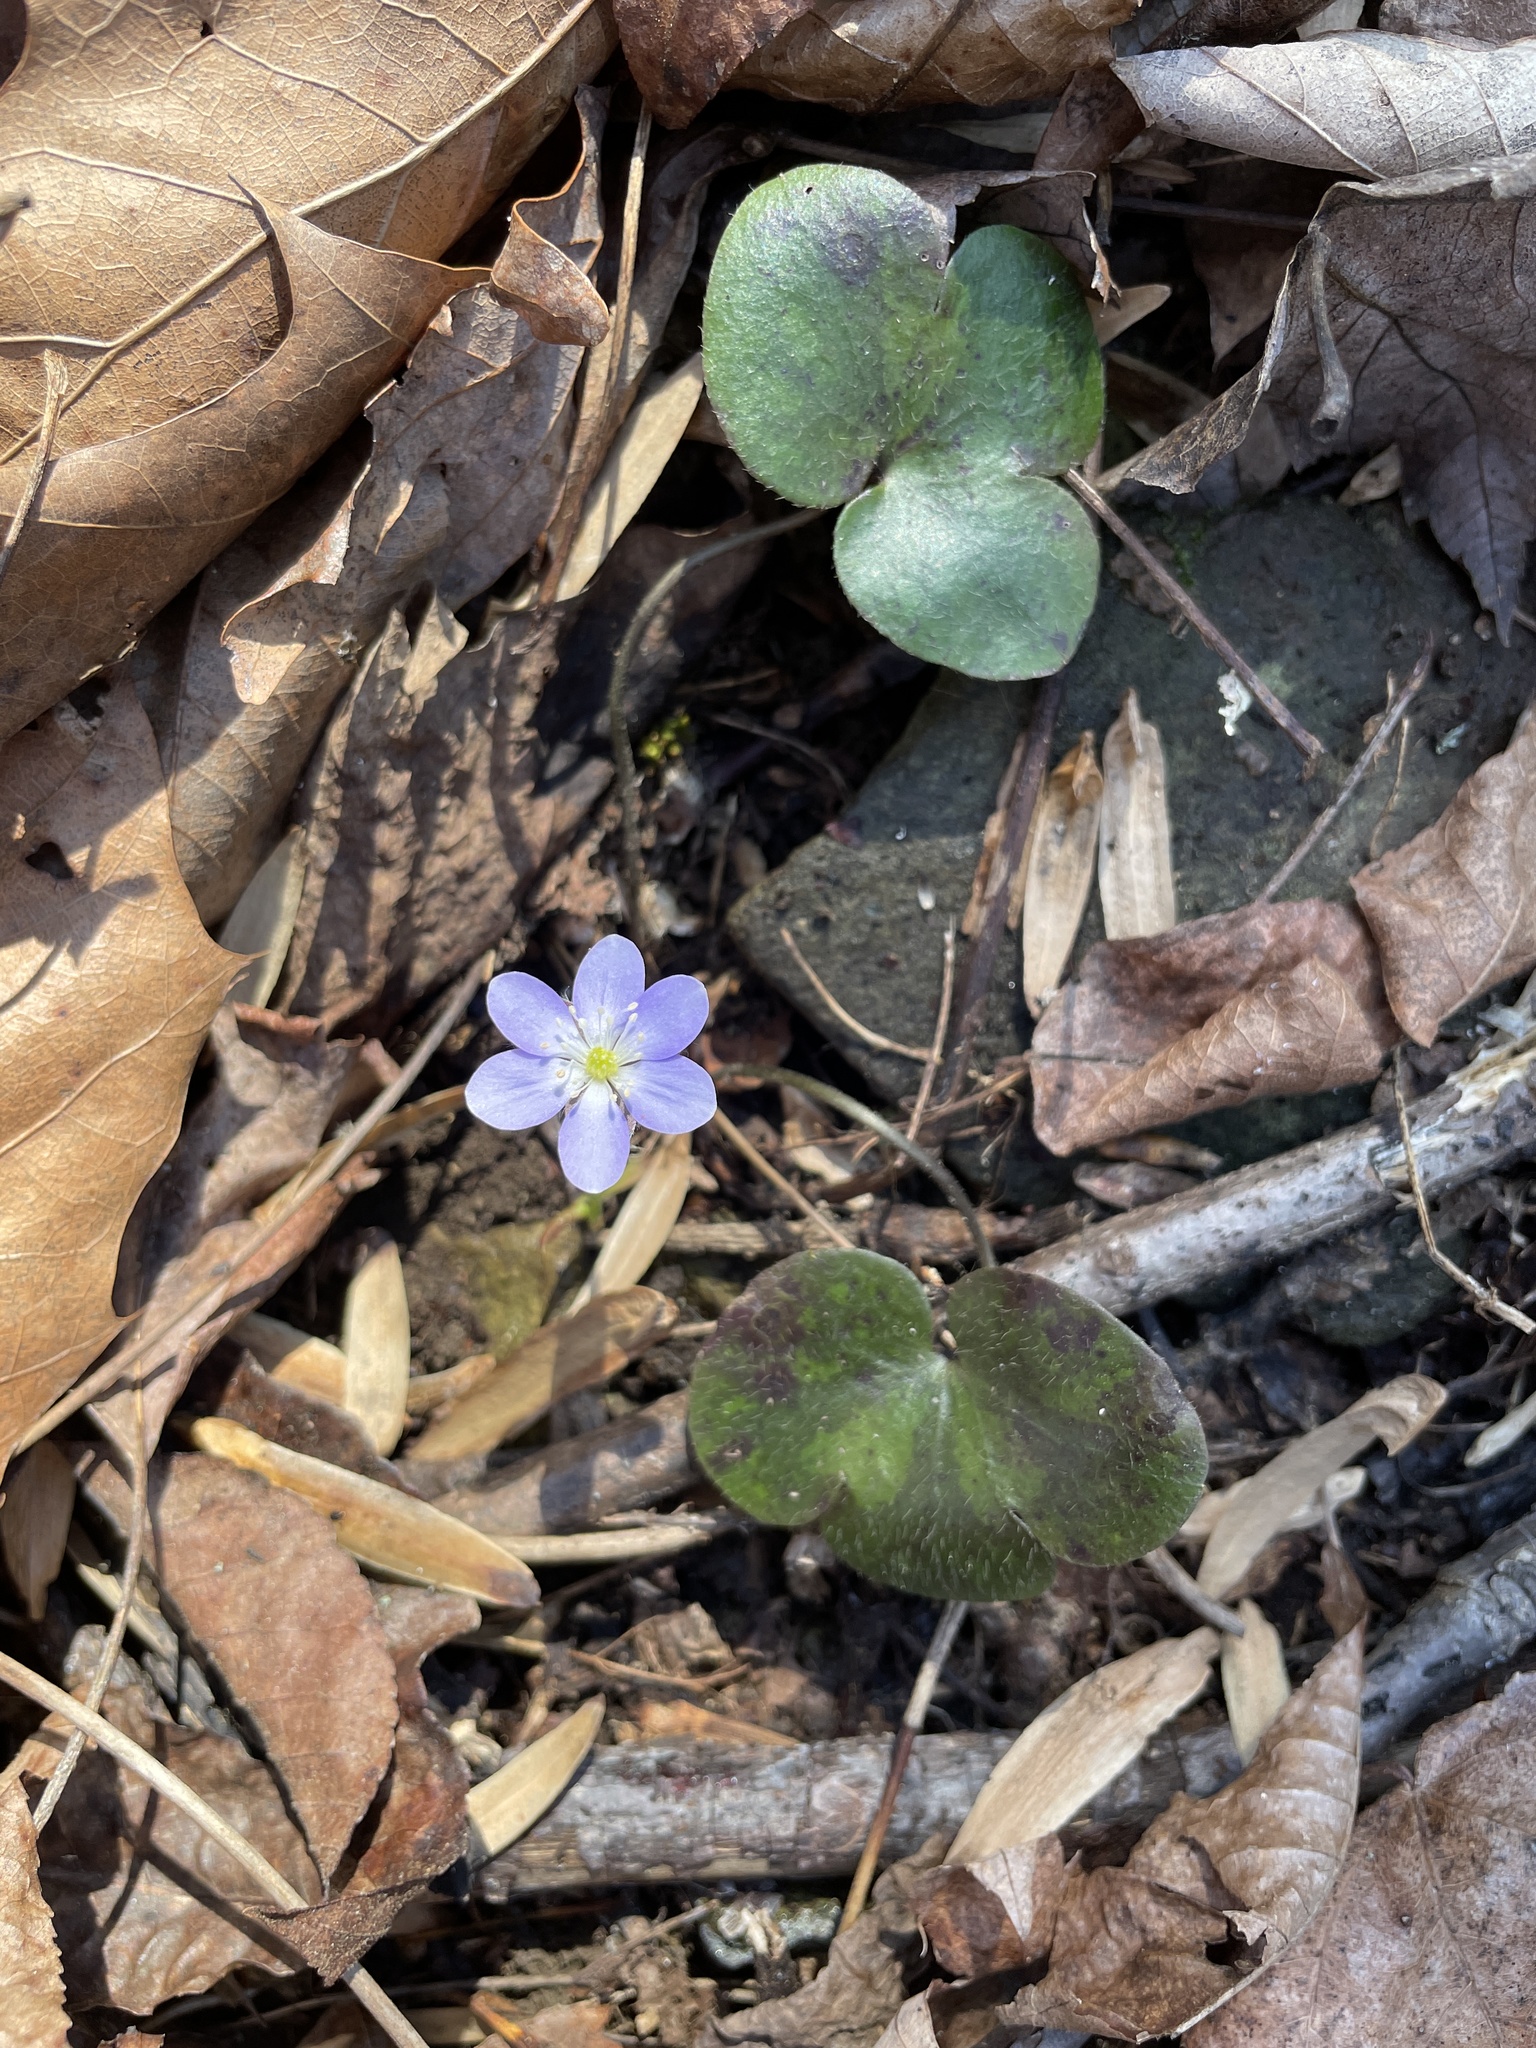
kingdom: Plantae
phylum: Tracheophyta
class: Magnoliopsida
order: Ranunculales
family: Ranunculaceae
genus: Hepatica
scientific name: Hepatica americana
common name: American hepatica
